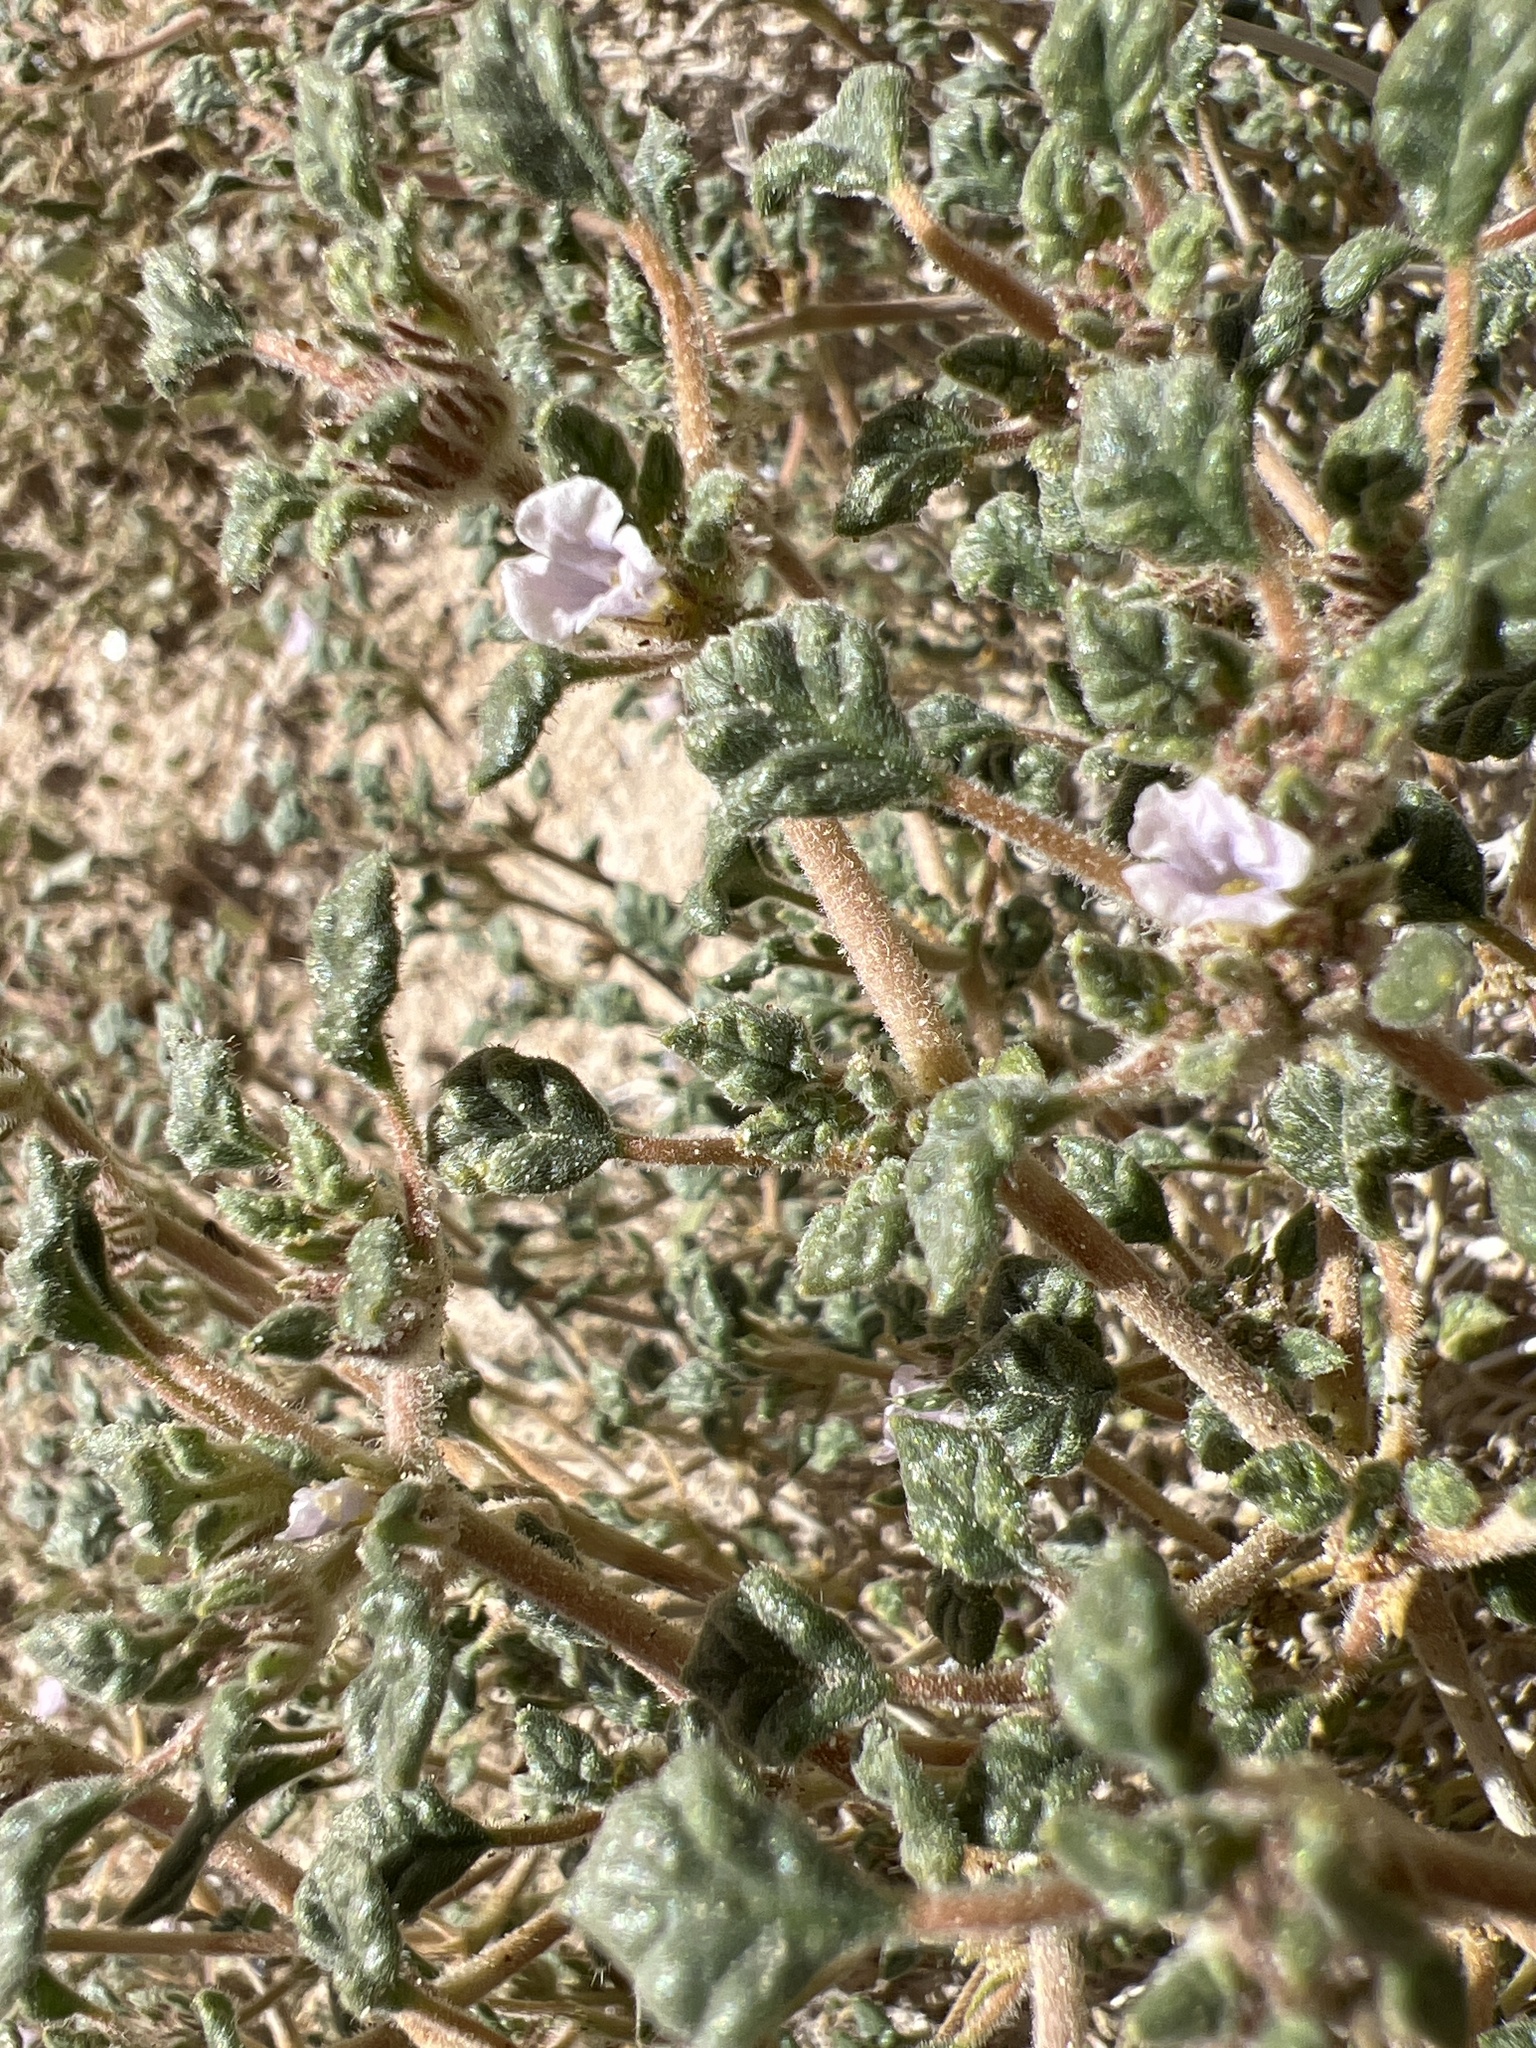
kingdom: Plantae
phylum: Tracheophyta
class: Magnoliopsida
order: Boraginales
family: Ehretiaceae
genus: Tiquilia
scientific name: Tiquilia palmeri
